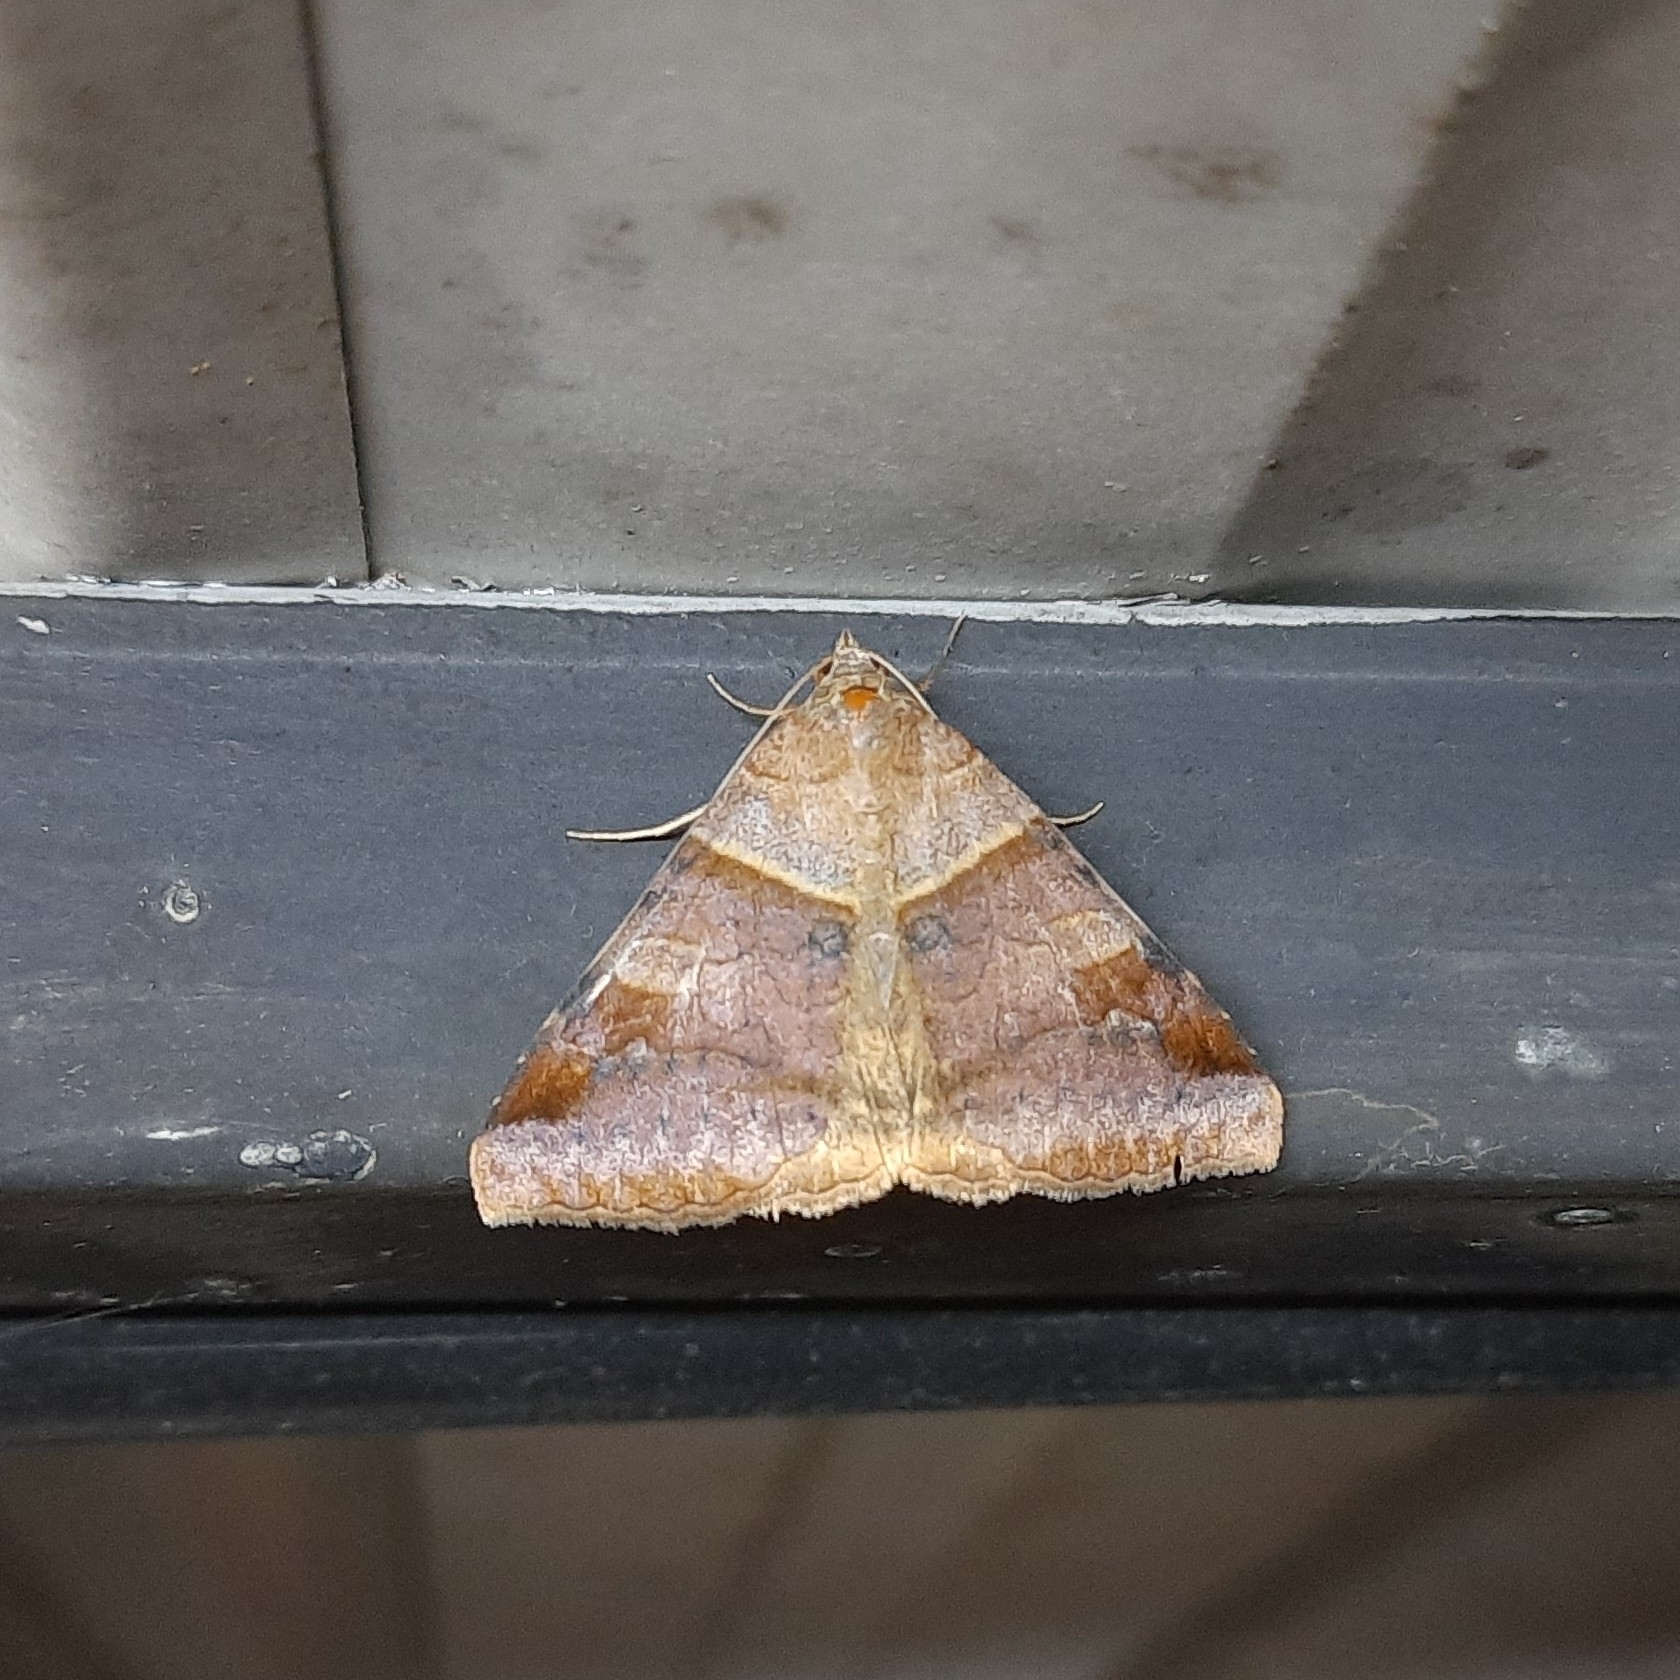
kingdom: Animalia
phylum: Arthropoda
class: Insecta
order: Lepidoptera
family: Erebidae
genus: Mocis
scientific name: Mocis undata
